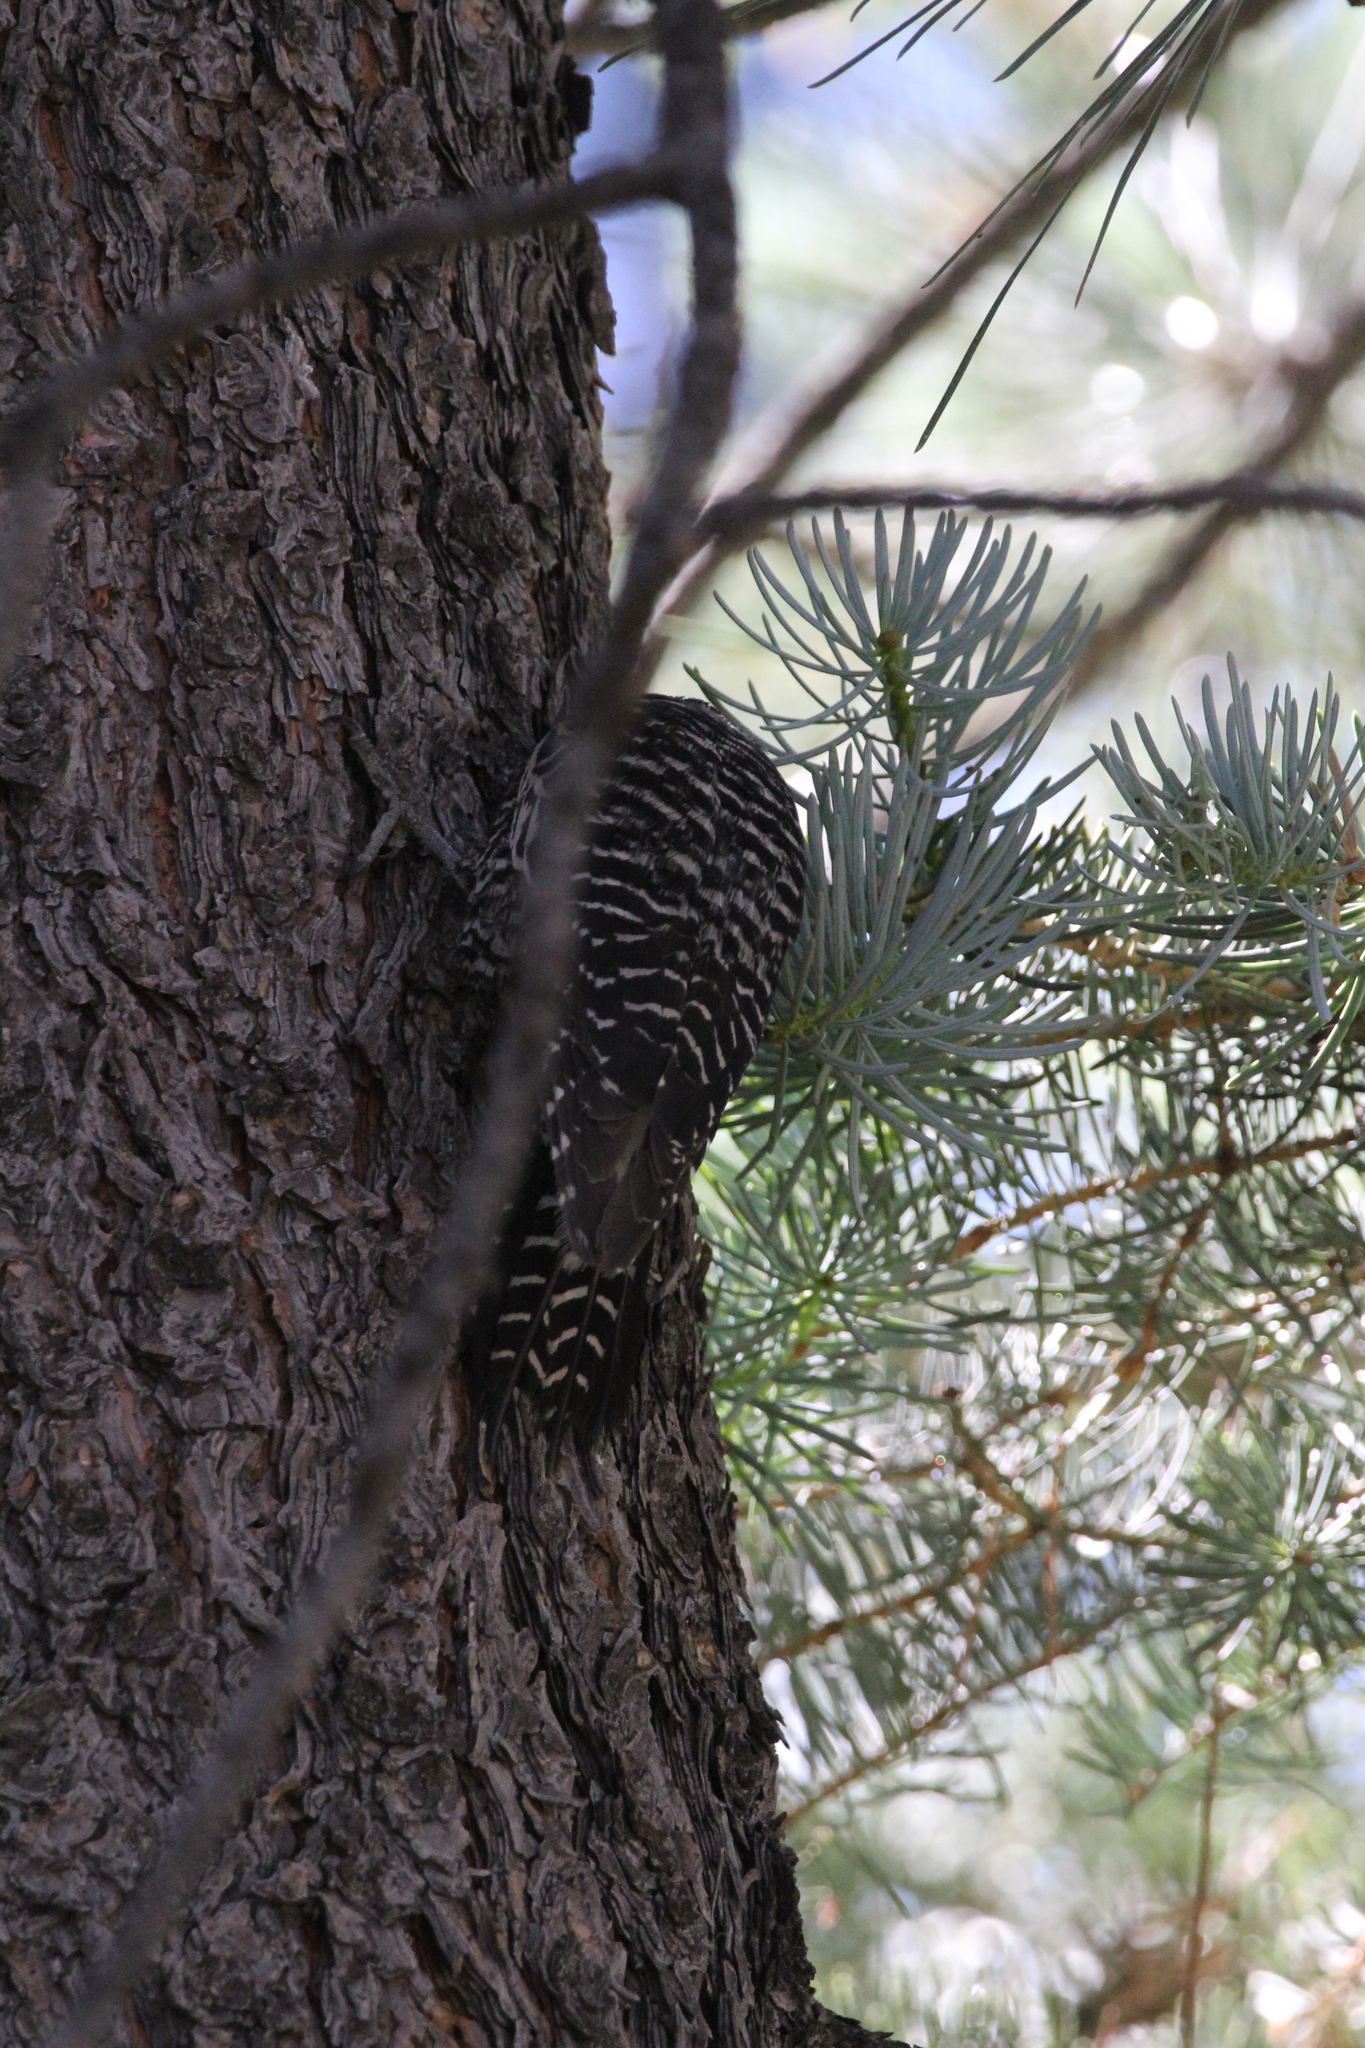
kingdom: Animalia
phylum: Chordata
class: Aves
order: Piciformes
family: Picidae
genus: Sphyrapicus
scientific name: Sphyrapicus thyroideus
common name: Williamson's sapsucker
